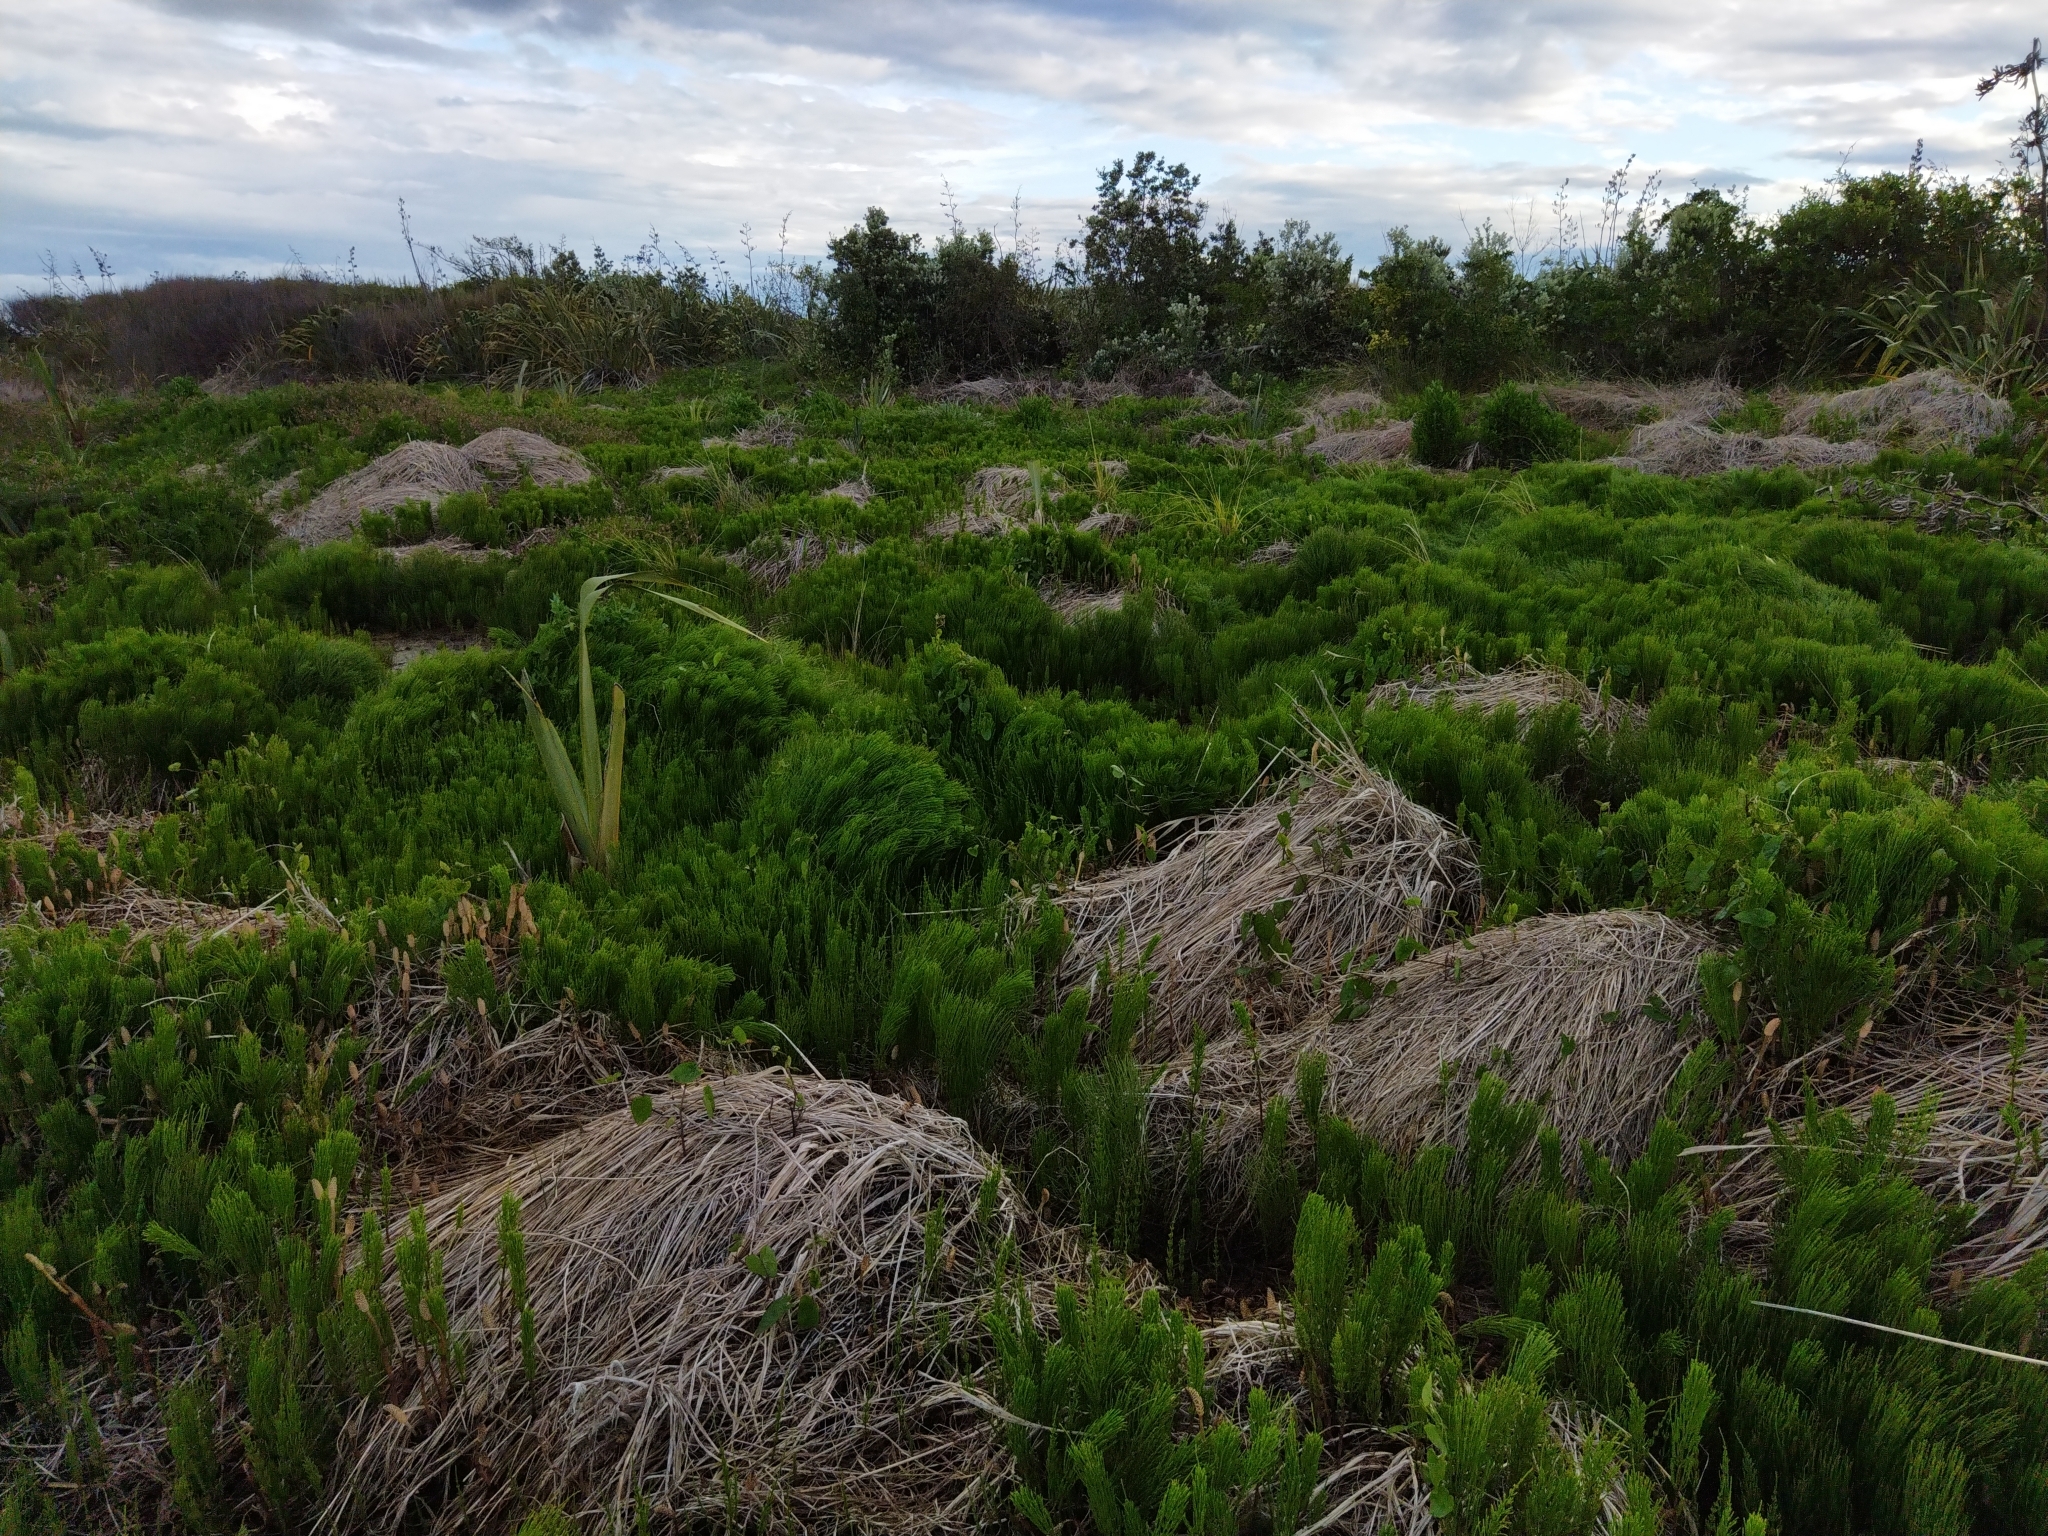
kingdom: Plantae
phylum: Tracheophyta
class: Polypodiopsida
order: Equisetales
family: Equisetaceae
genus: Equisetum
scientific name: Equisetum arvense
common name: Field horsetail
